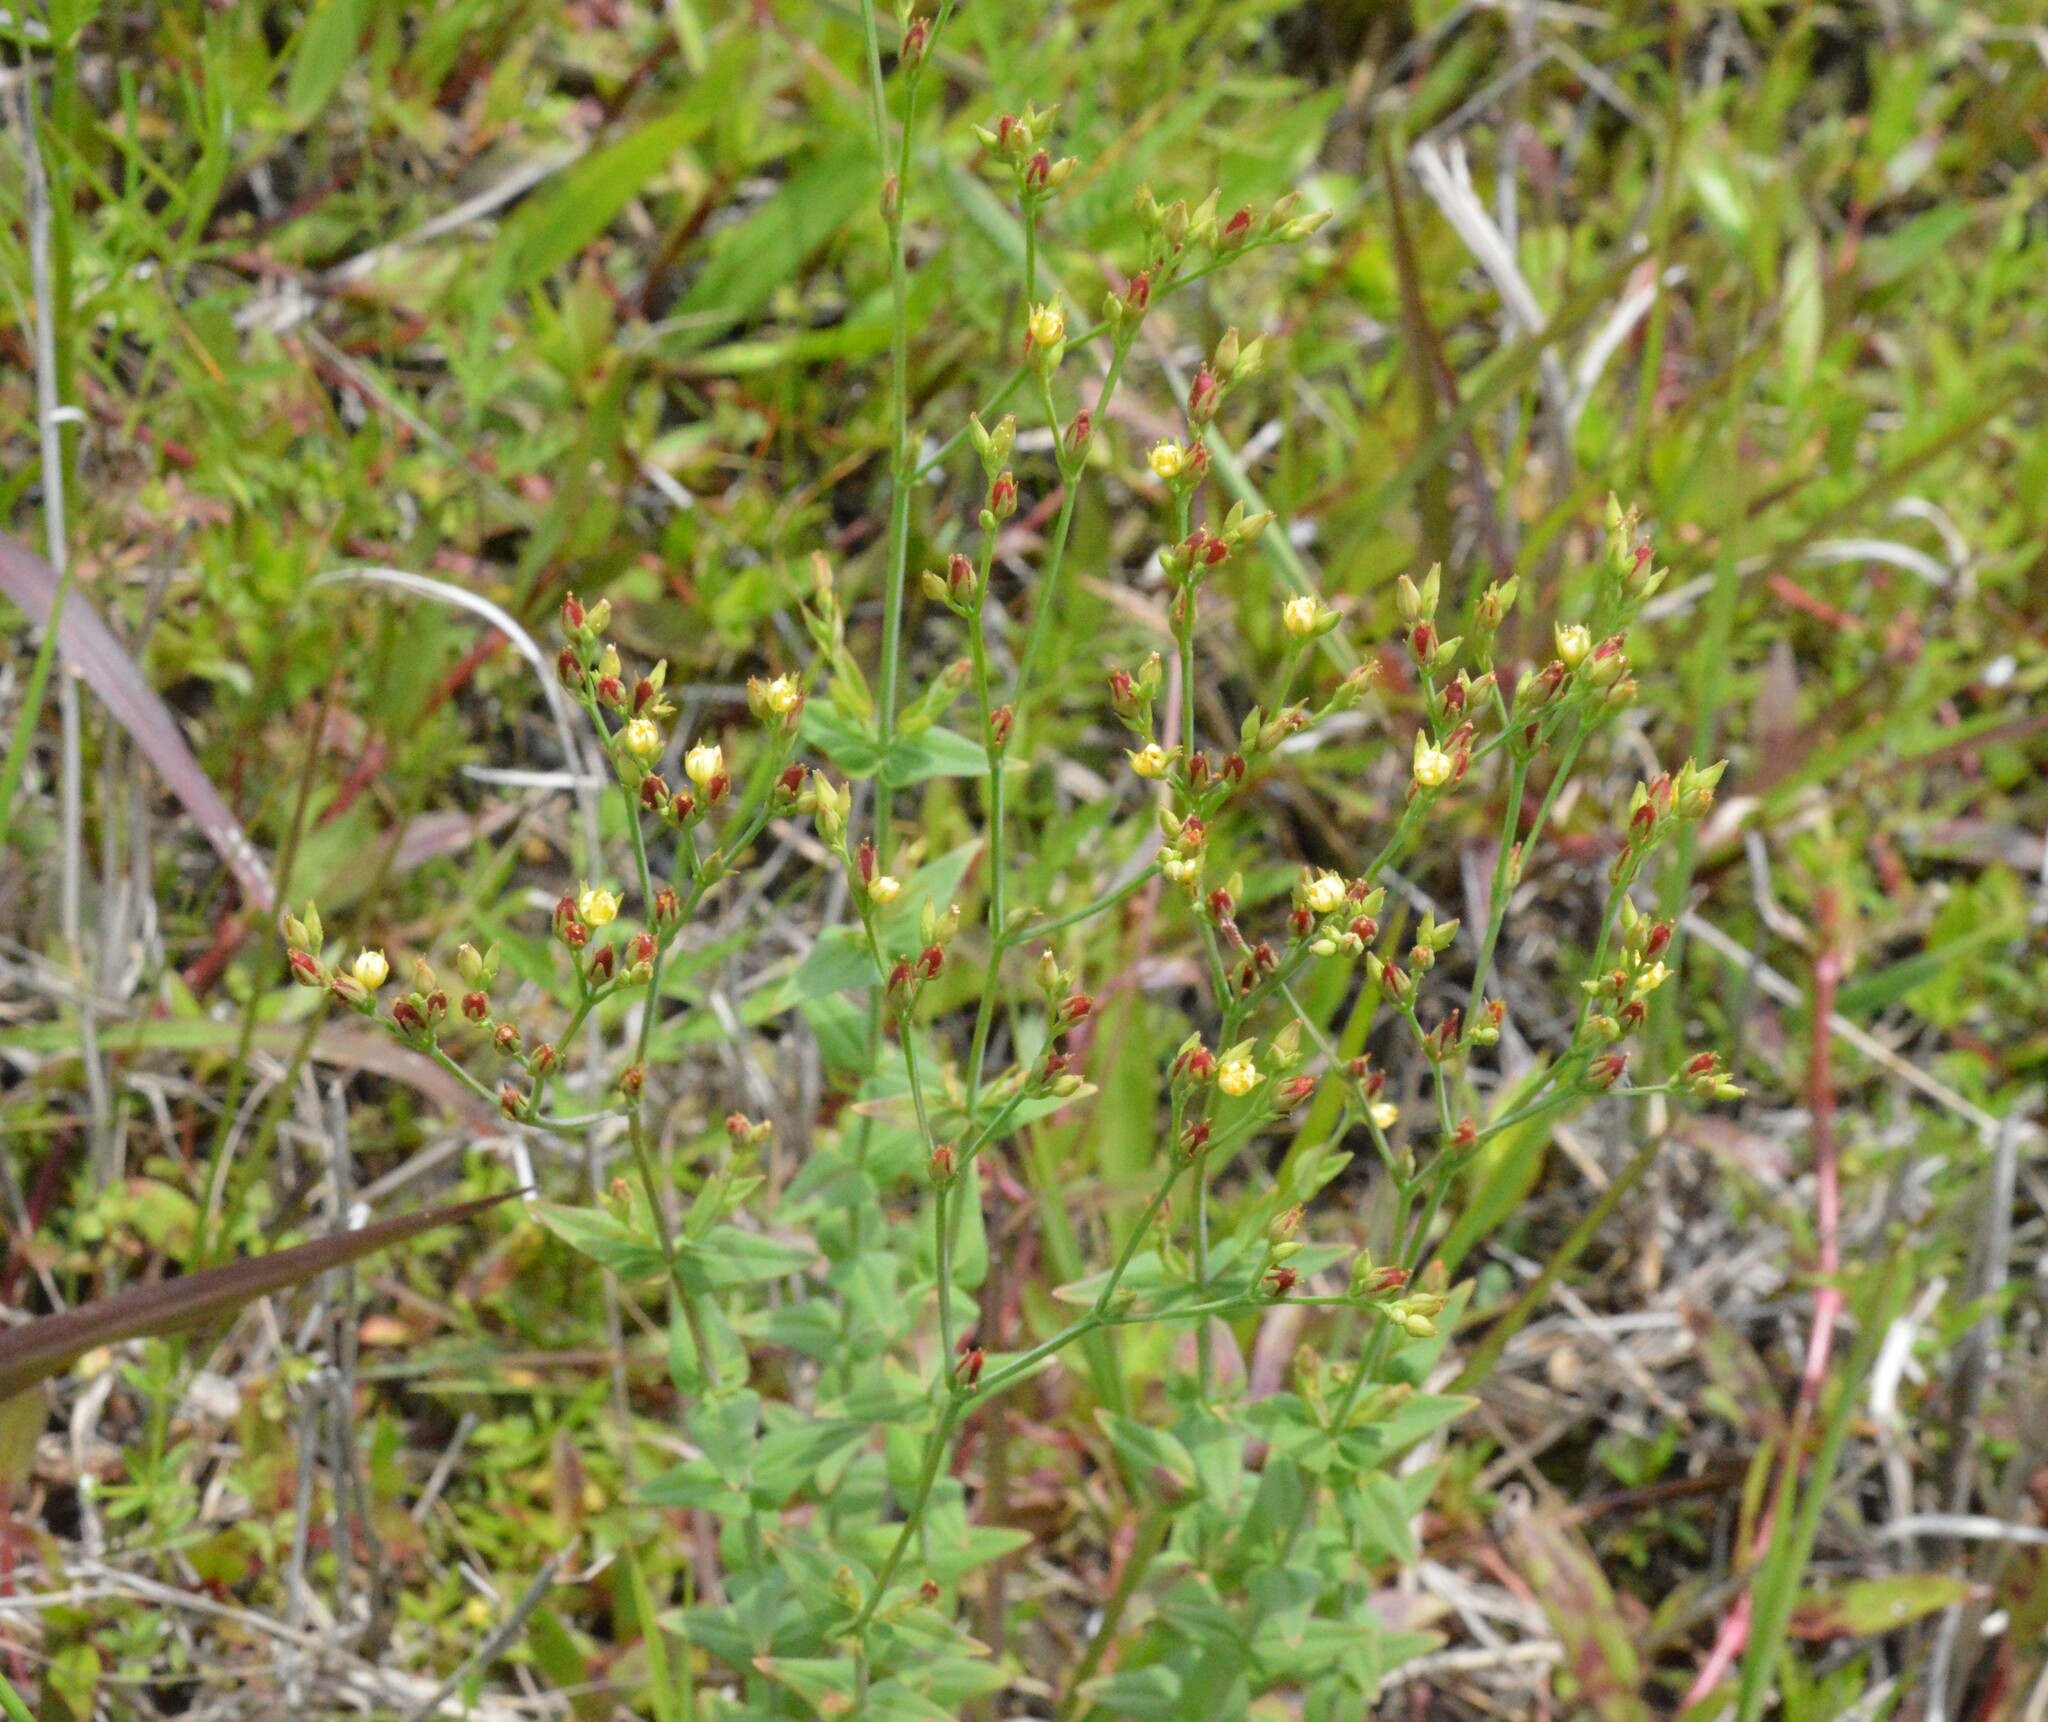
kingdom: Plantae
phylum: Tracheophyta
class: Magnoliopsida
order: Malpighiales
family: Hypericaceae
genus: Hypericum
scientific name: Hypericum gymnanthum
